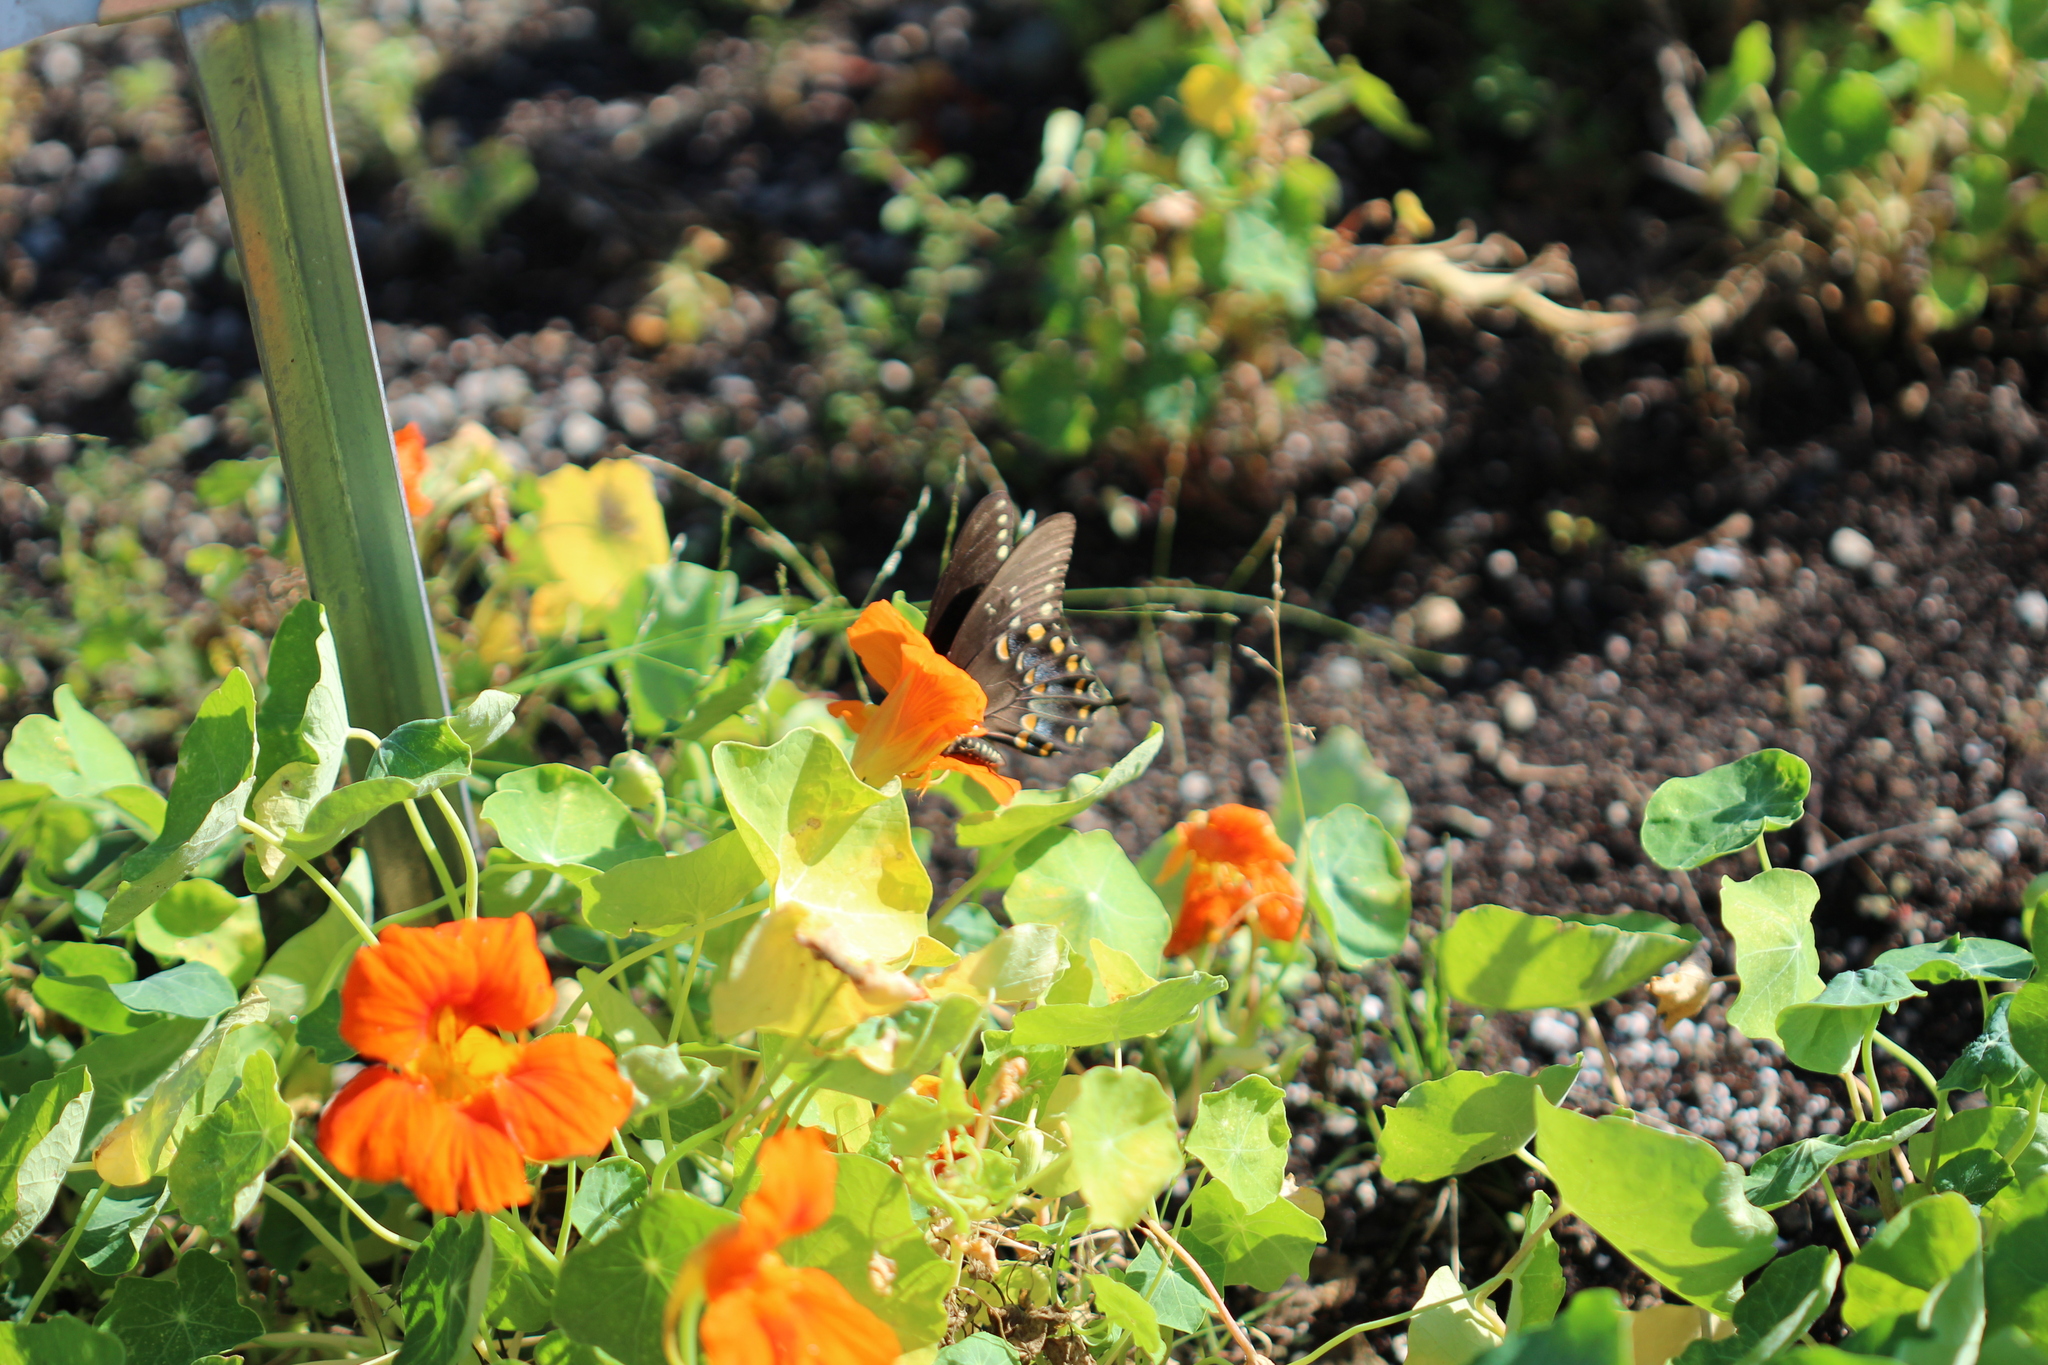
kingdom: Animalia
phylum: Arthropoda
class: Insecta
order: Lepidoptera
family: Papilionidae
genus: Papilio
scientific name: Papilio troilus
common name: Spicebush swallowtail
